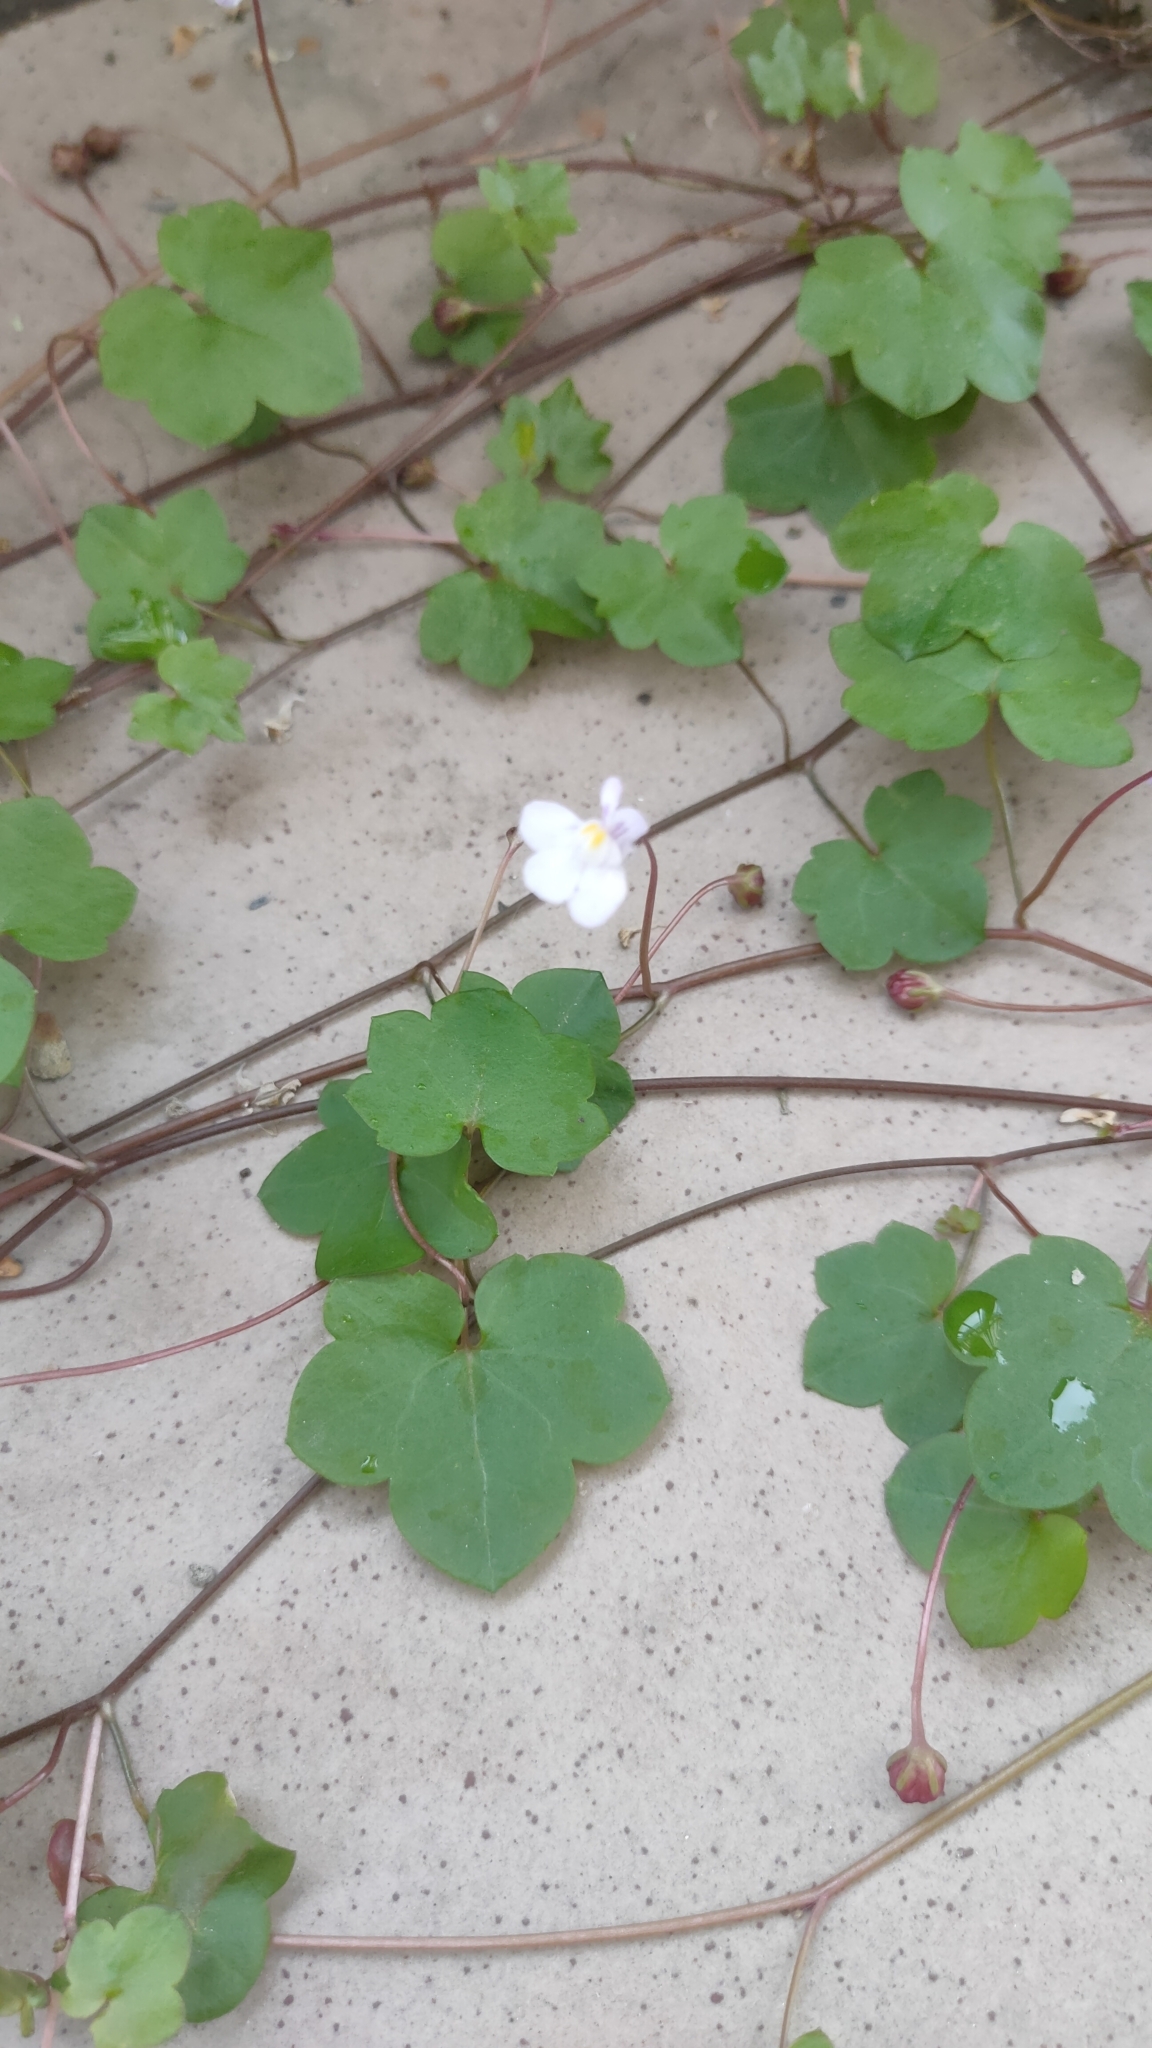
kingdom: Plantae
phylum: Tracheophyta
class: Magnoliopsida
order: Lamiales
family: Plantaginaceae
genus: Cymbalaria
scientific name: Cymbalaria muralis
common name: Ivy-leaved toadflax
